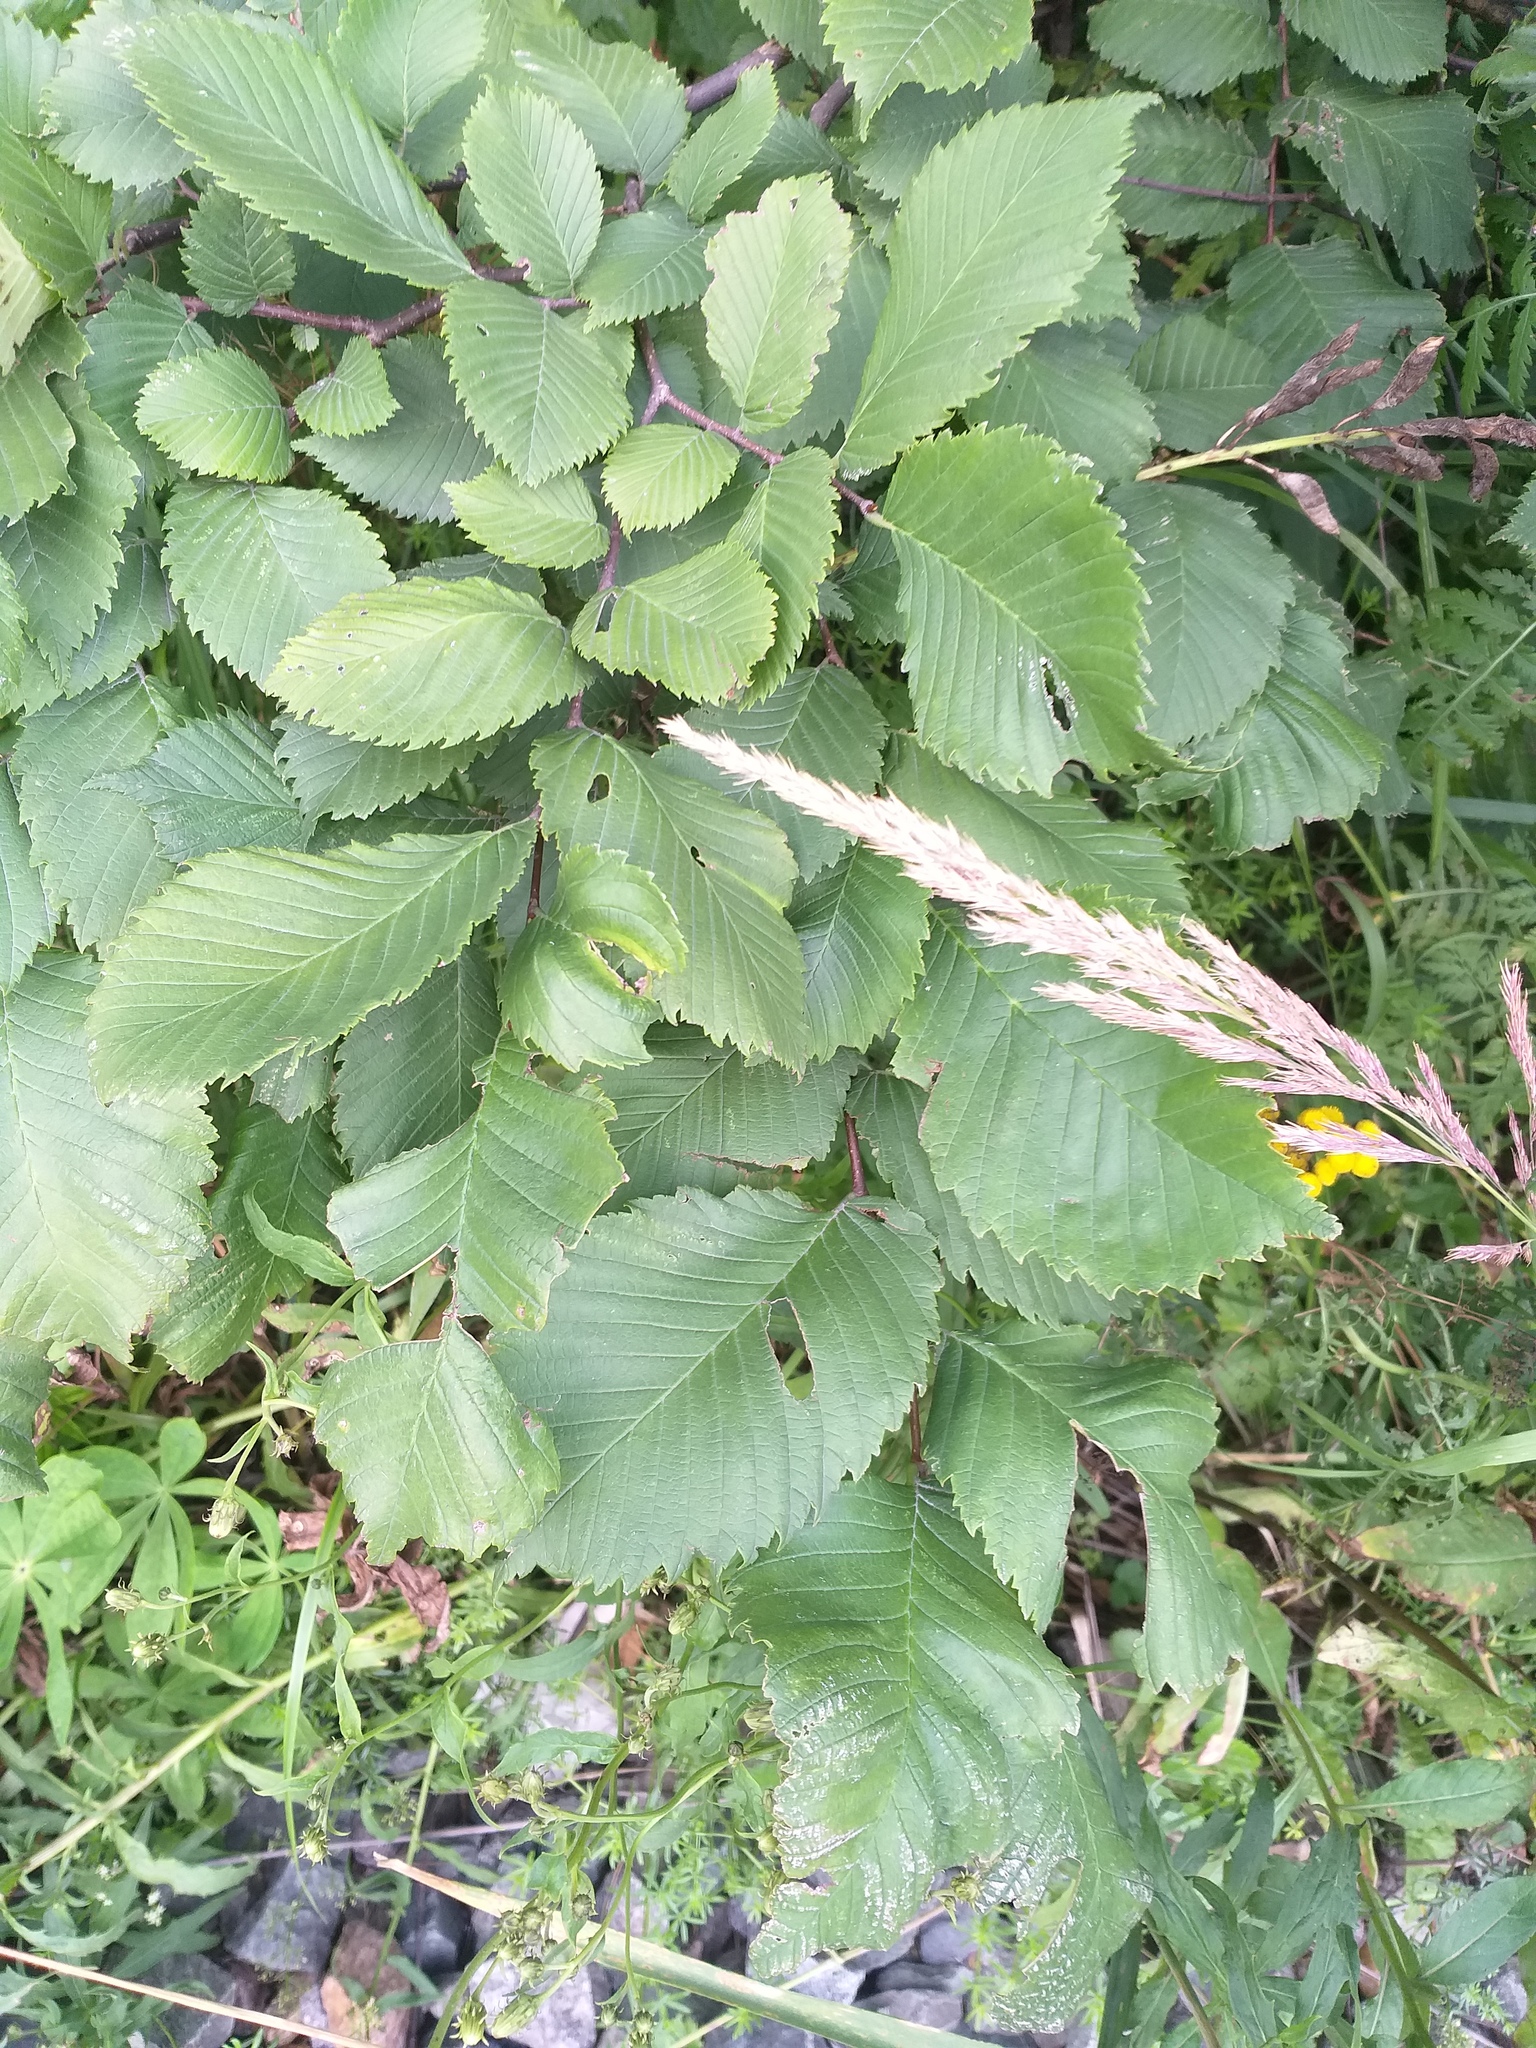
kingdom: Plantae
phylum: Tracheophyta
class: Magnoliopsida
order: Rosales
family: Ulmaceae
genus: Ulmus
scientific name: Ulmus laevis
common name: European white-elm
